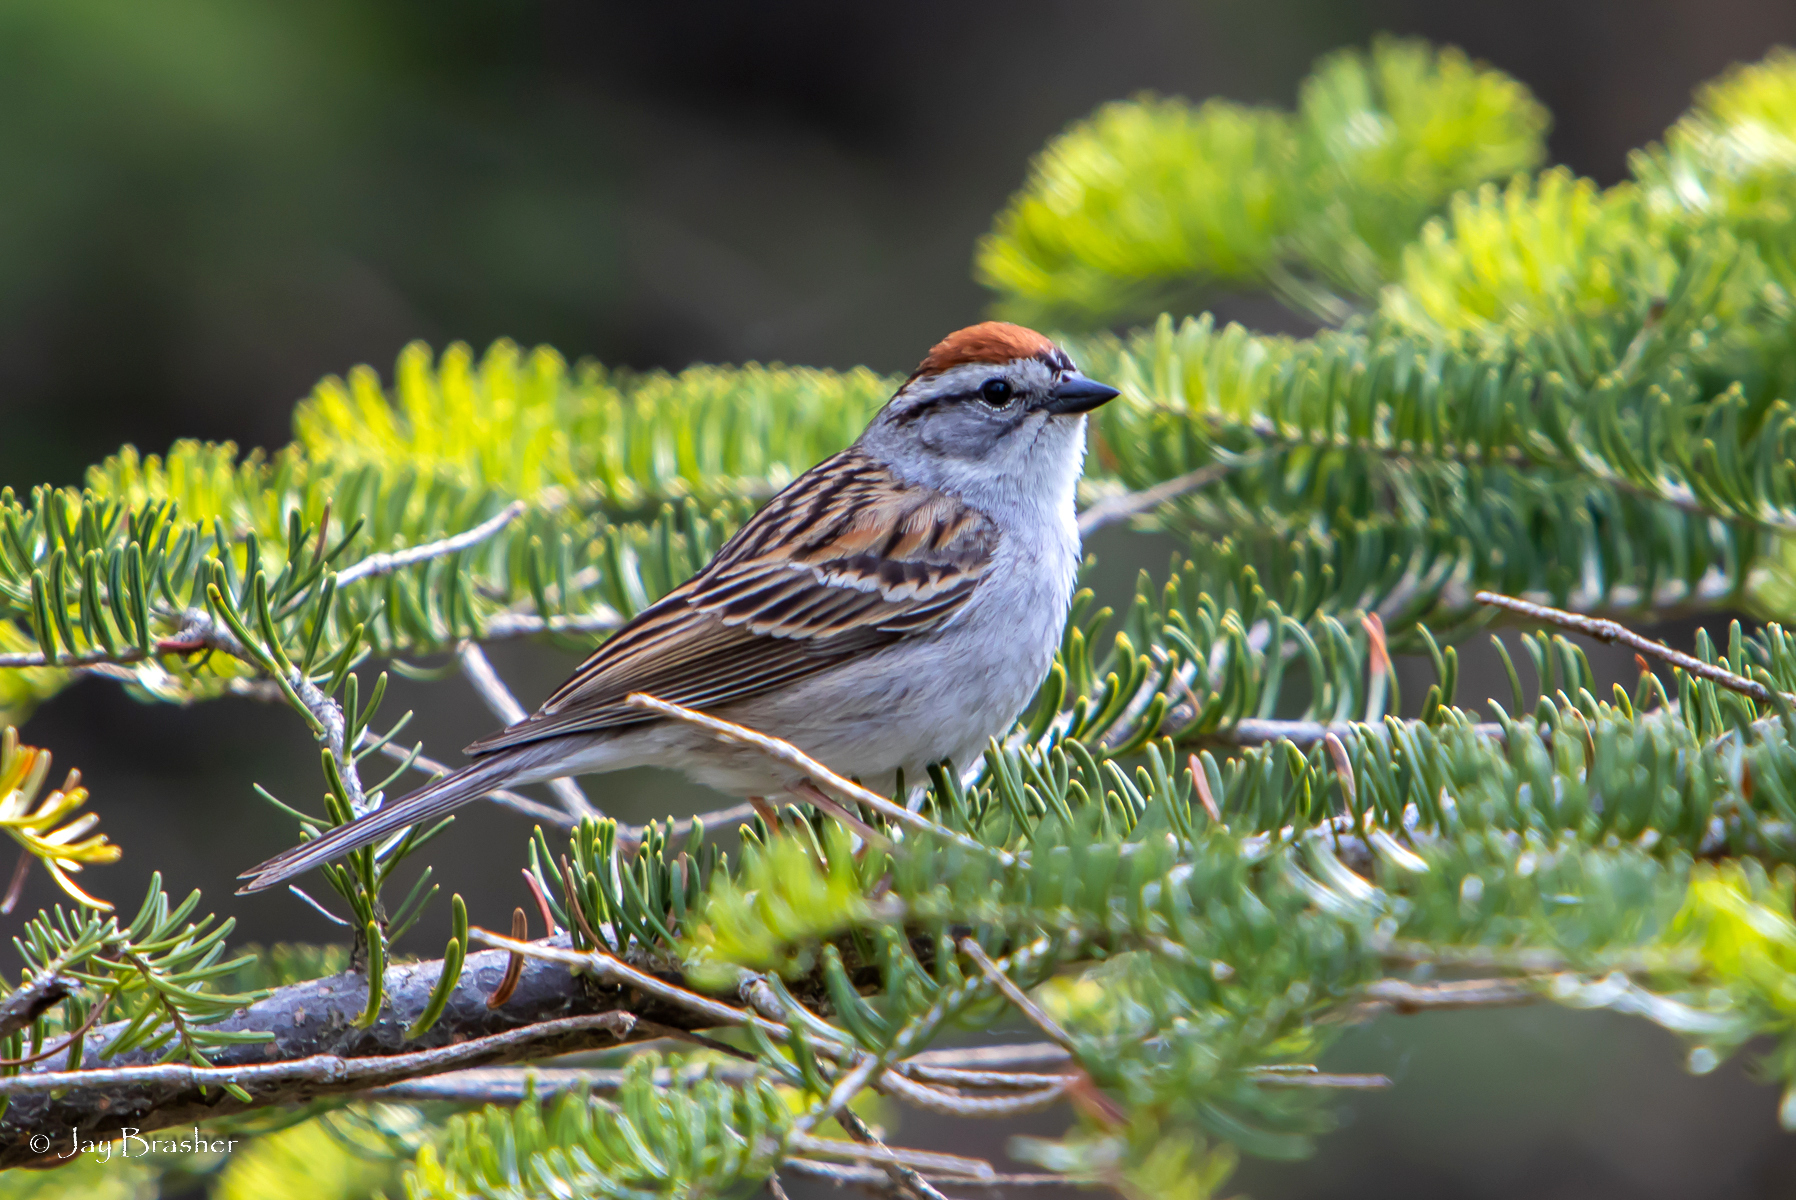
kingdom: Animalia
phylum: Chordata
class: Aves
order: Passeriformes
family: Passerellidae
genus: Spizella
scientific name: Spizella passerina
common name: Chipping sparrow
